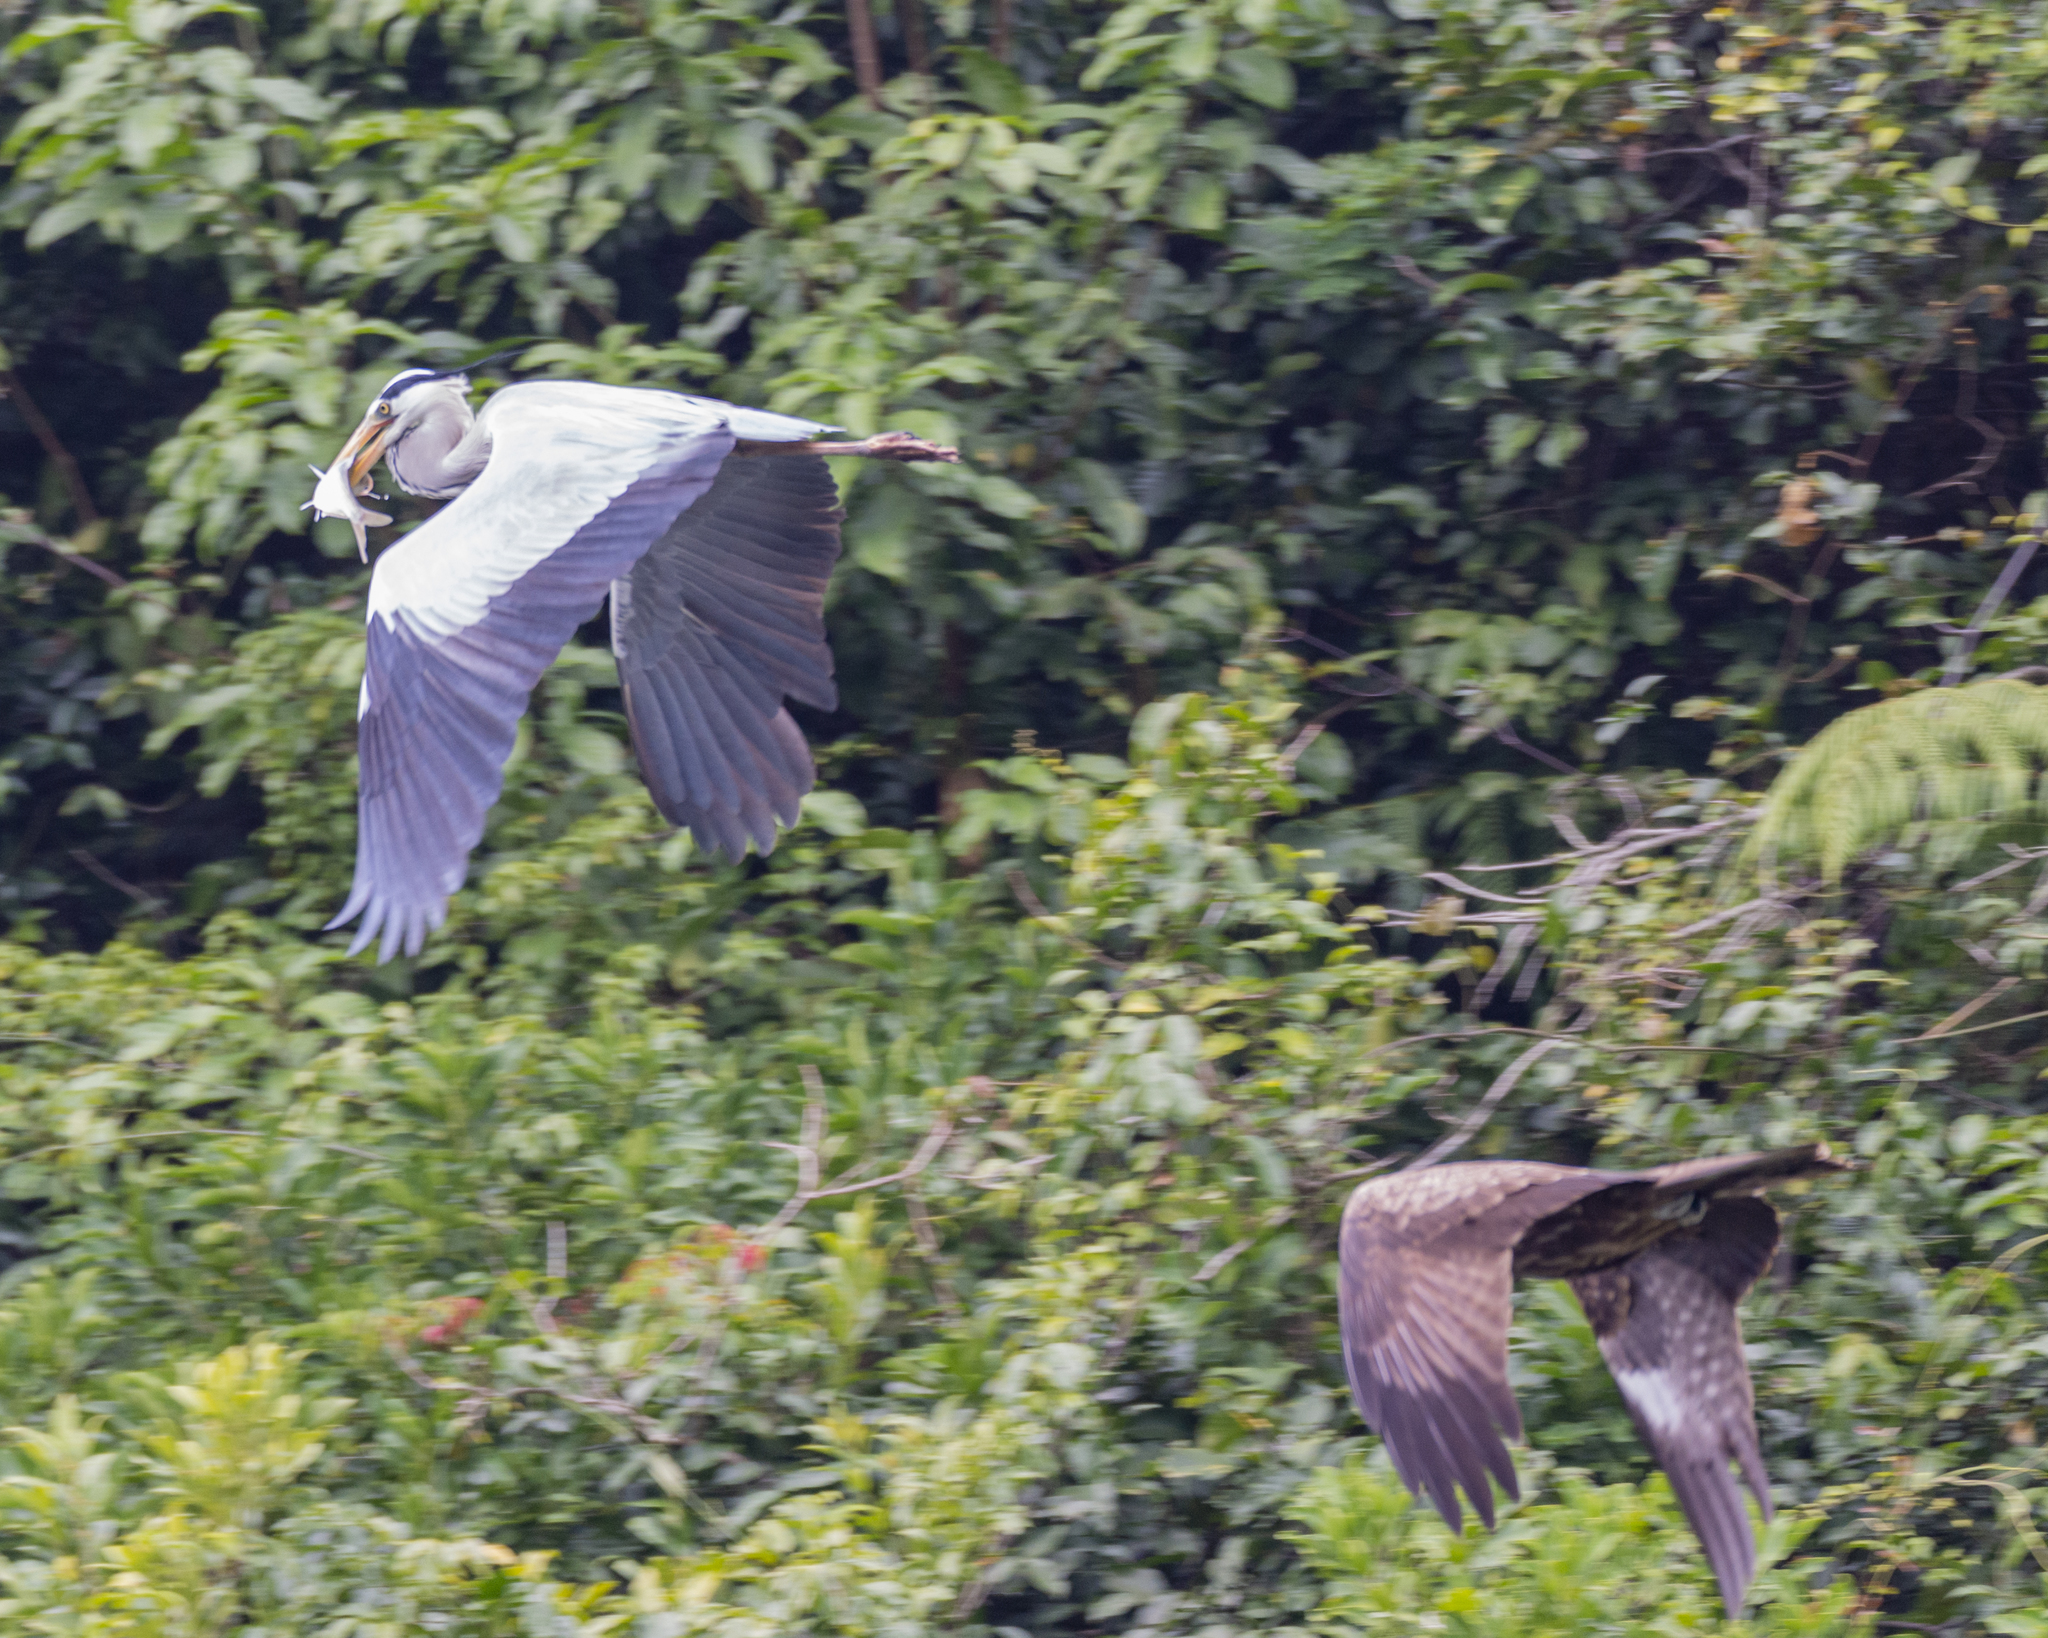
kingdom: Animalia
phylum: Chordata
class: Aves
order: Pelecaniformes
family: Ardeidae
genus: Ardea
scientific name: Ardea cinerea
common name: Grey heron
